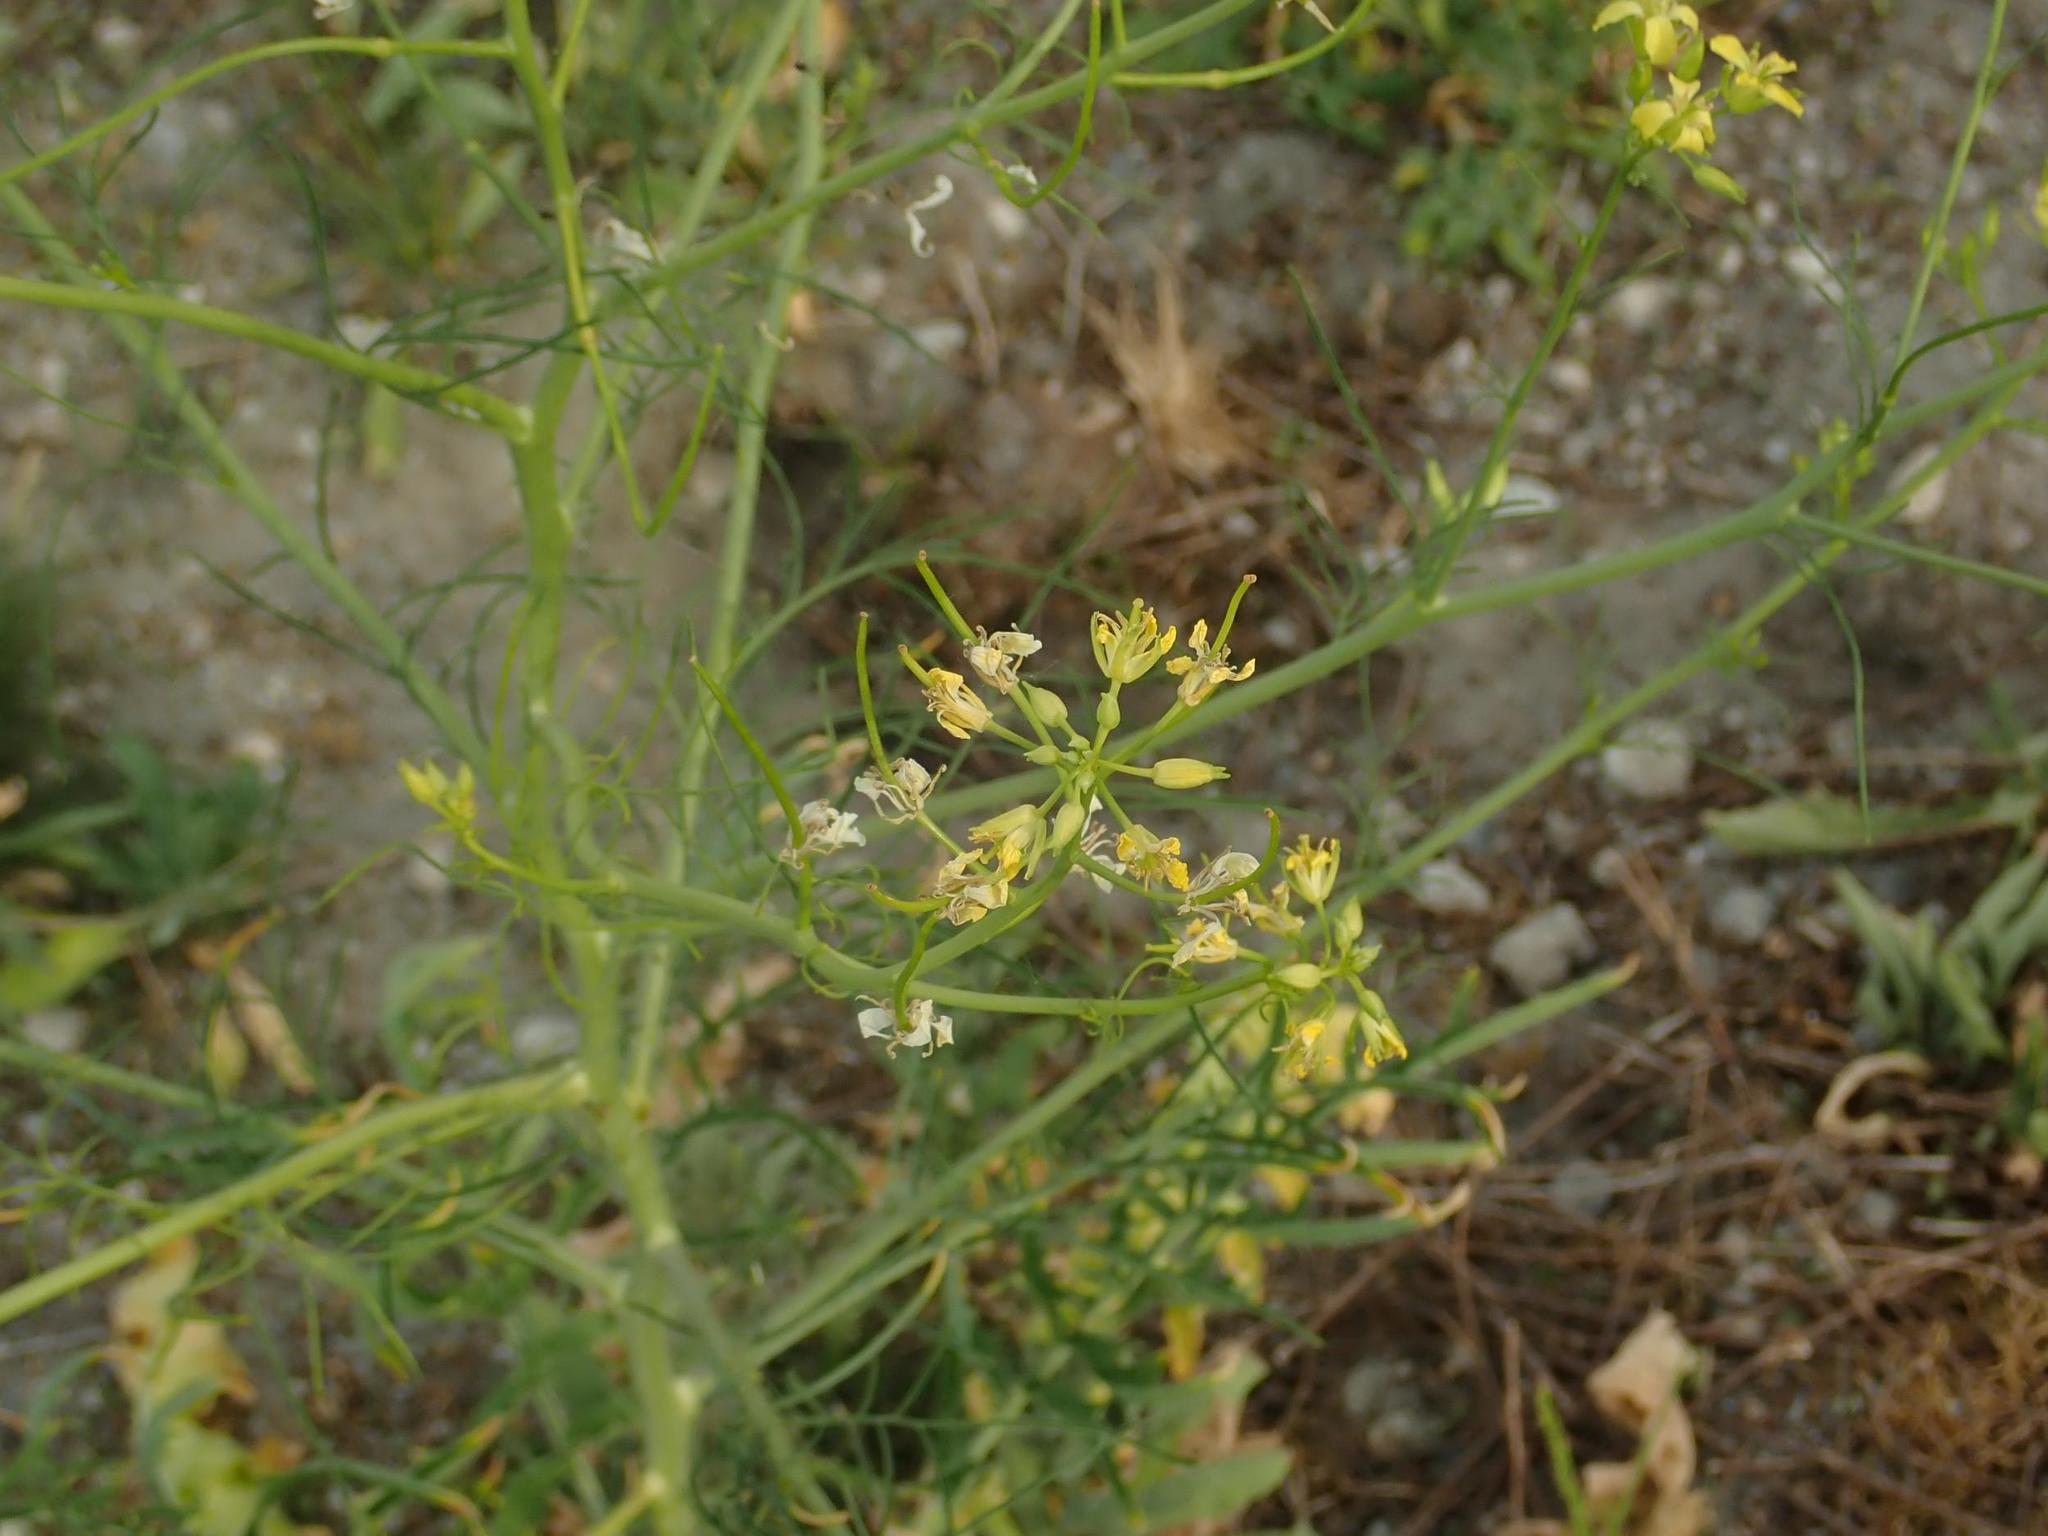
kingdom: Plantae
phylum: Tracheophyta
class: Magnoliopsida
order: Brassicales
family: Brassicaceae
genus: Sisymbrium
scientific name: Sisymbrium altissimum
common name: Tall rocket
